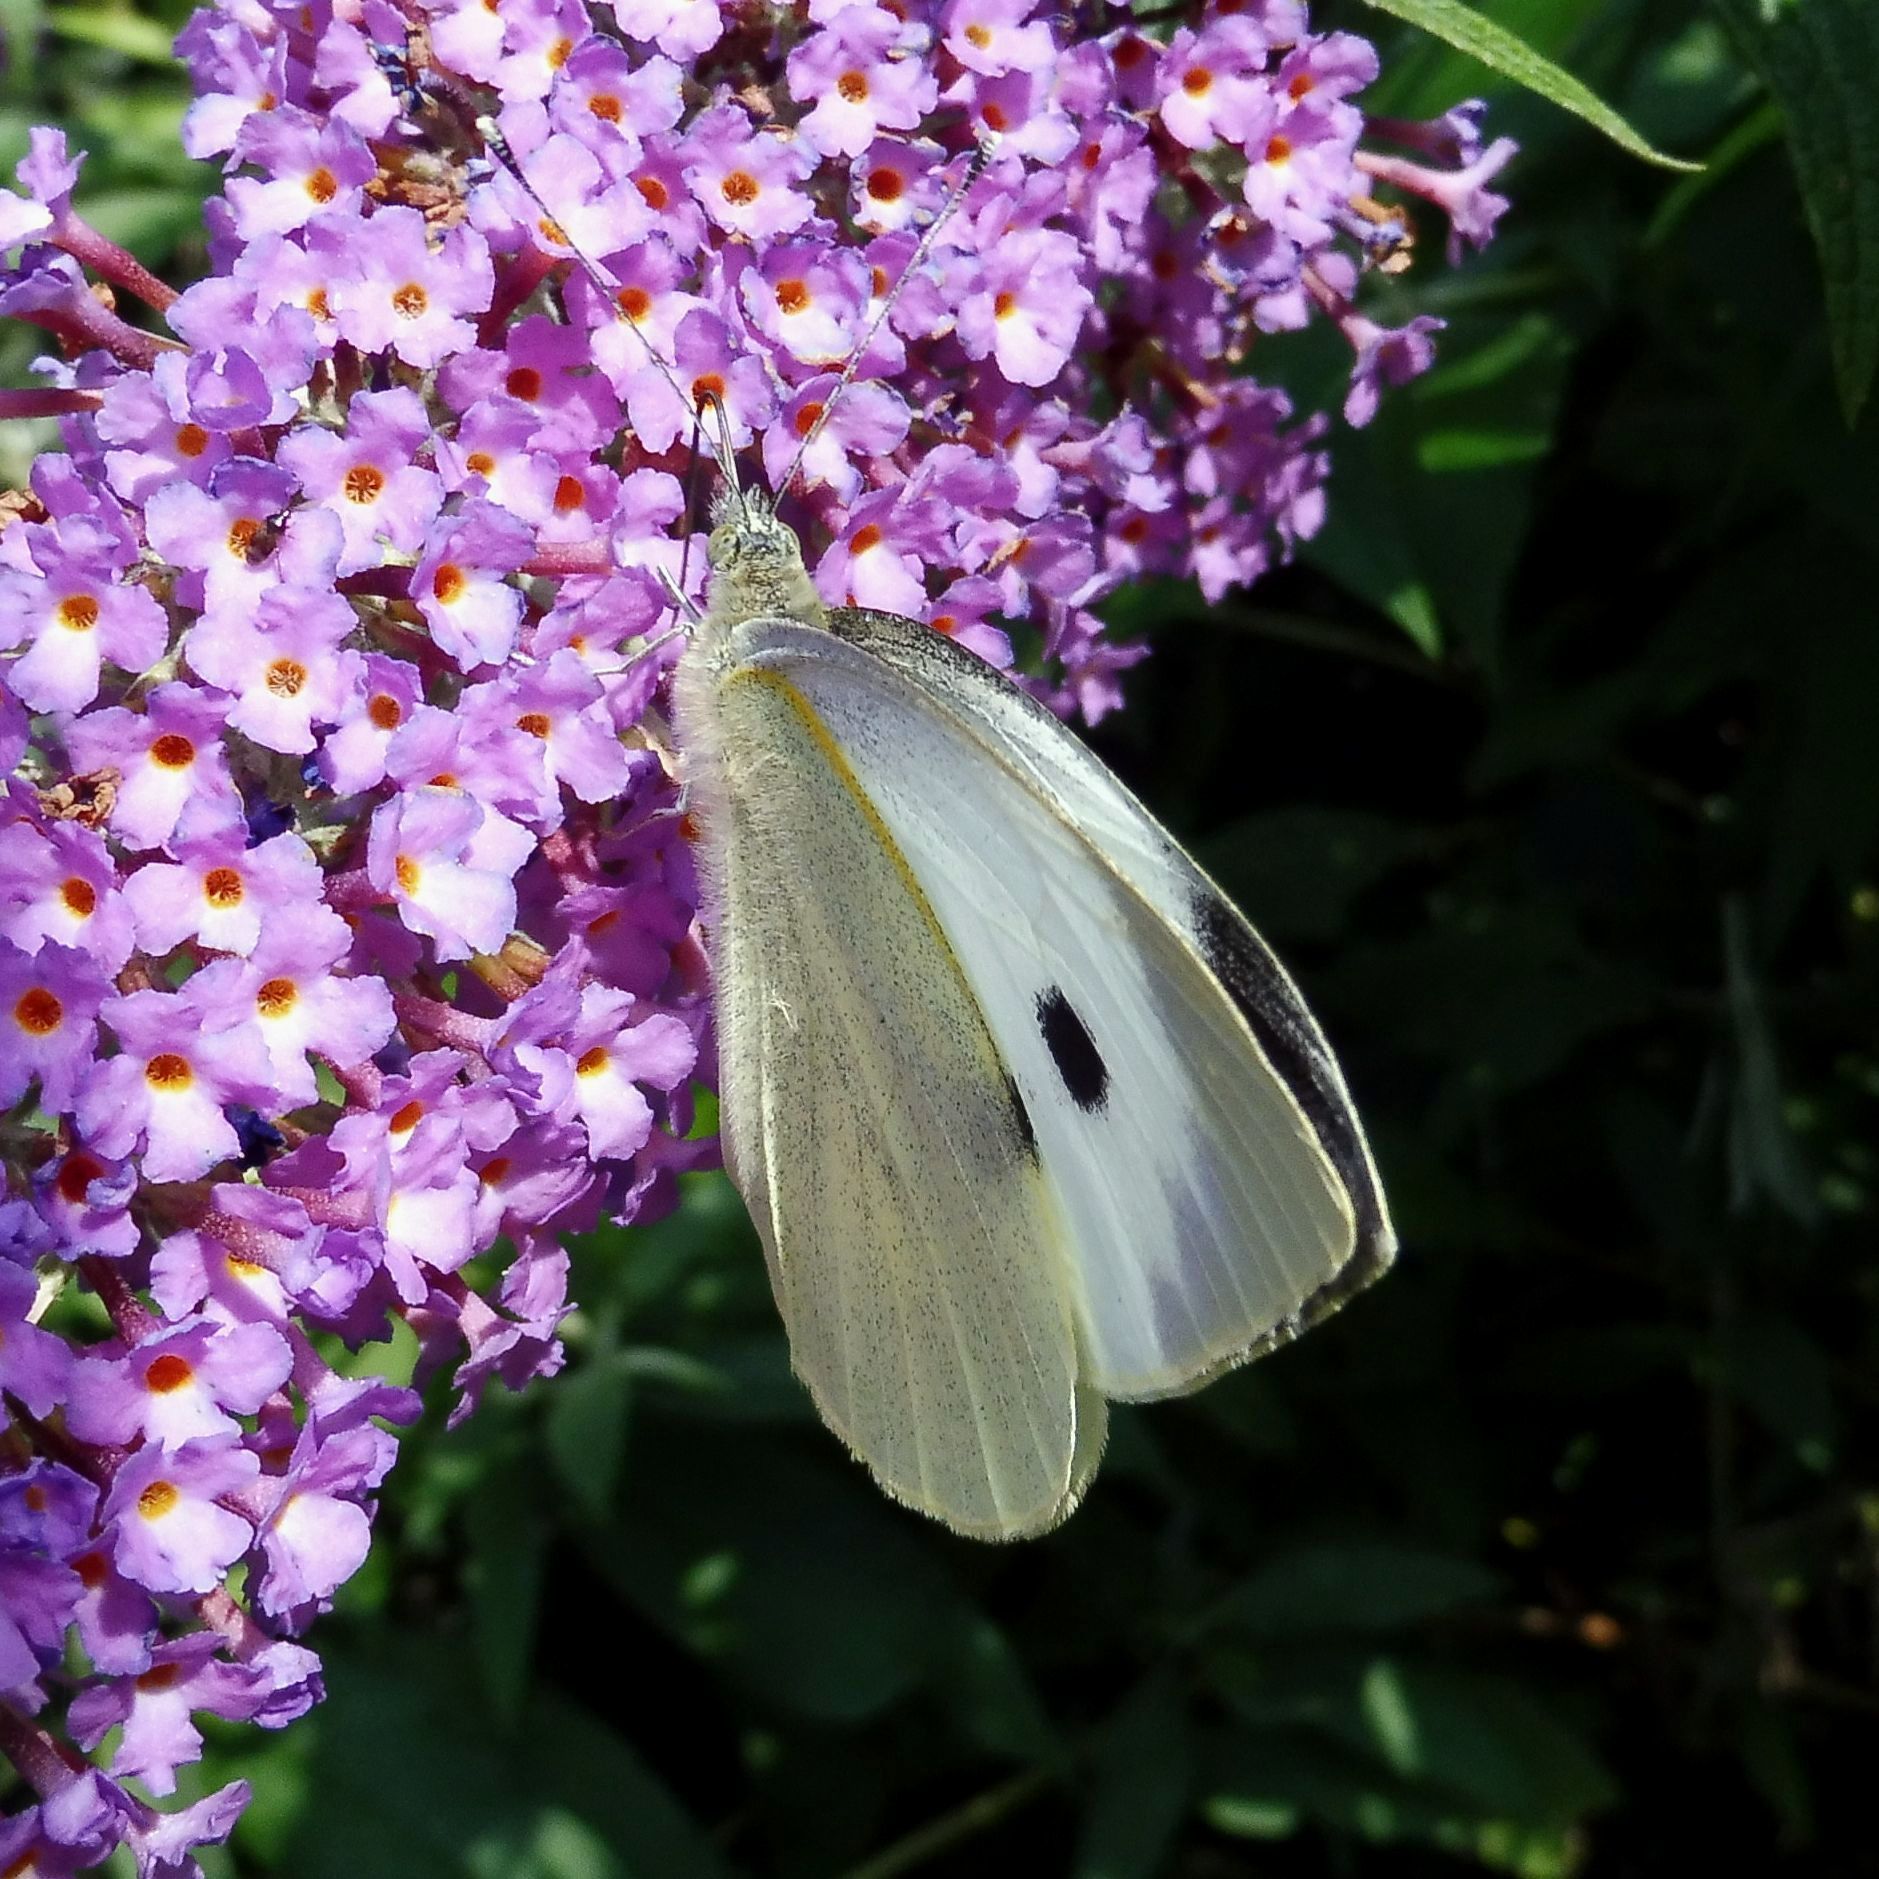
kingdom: Animalia
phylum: Arthropoda
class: Insecta
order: Lepidoptera
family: Pieridae
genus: Pieris
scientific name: Pieris brassicae
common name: Large white
